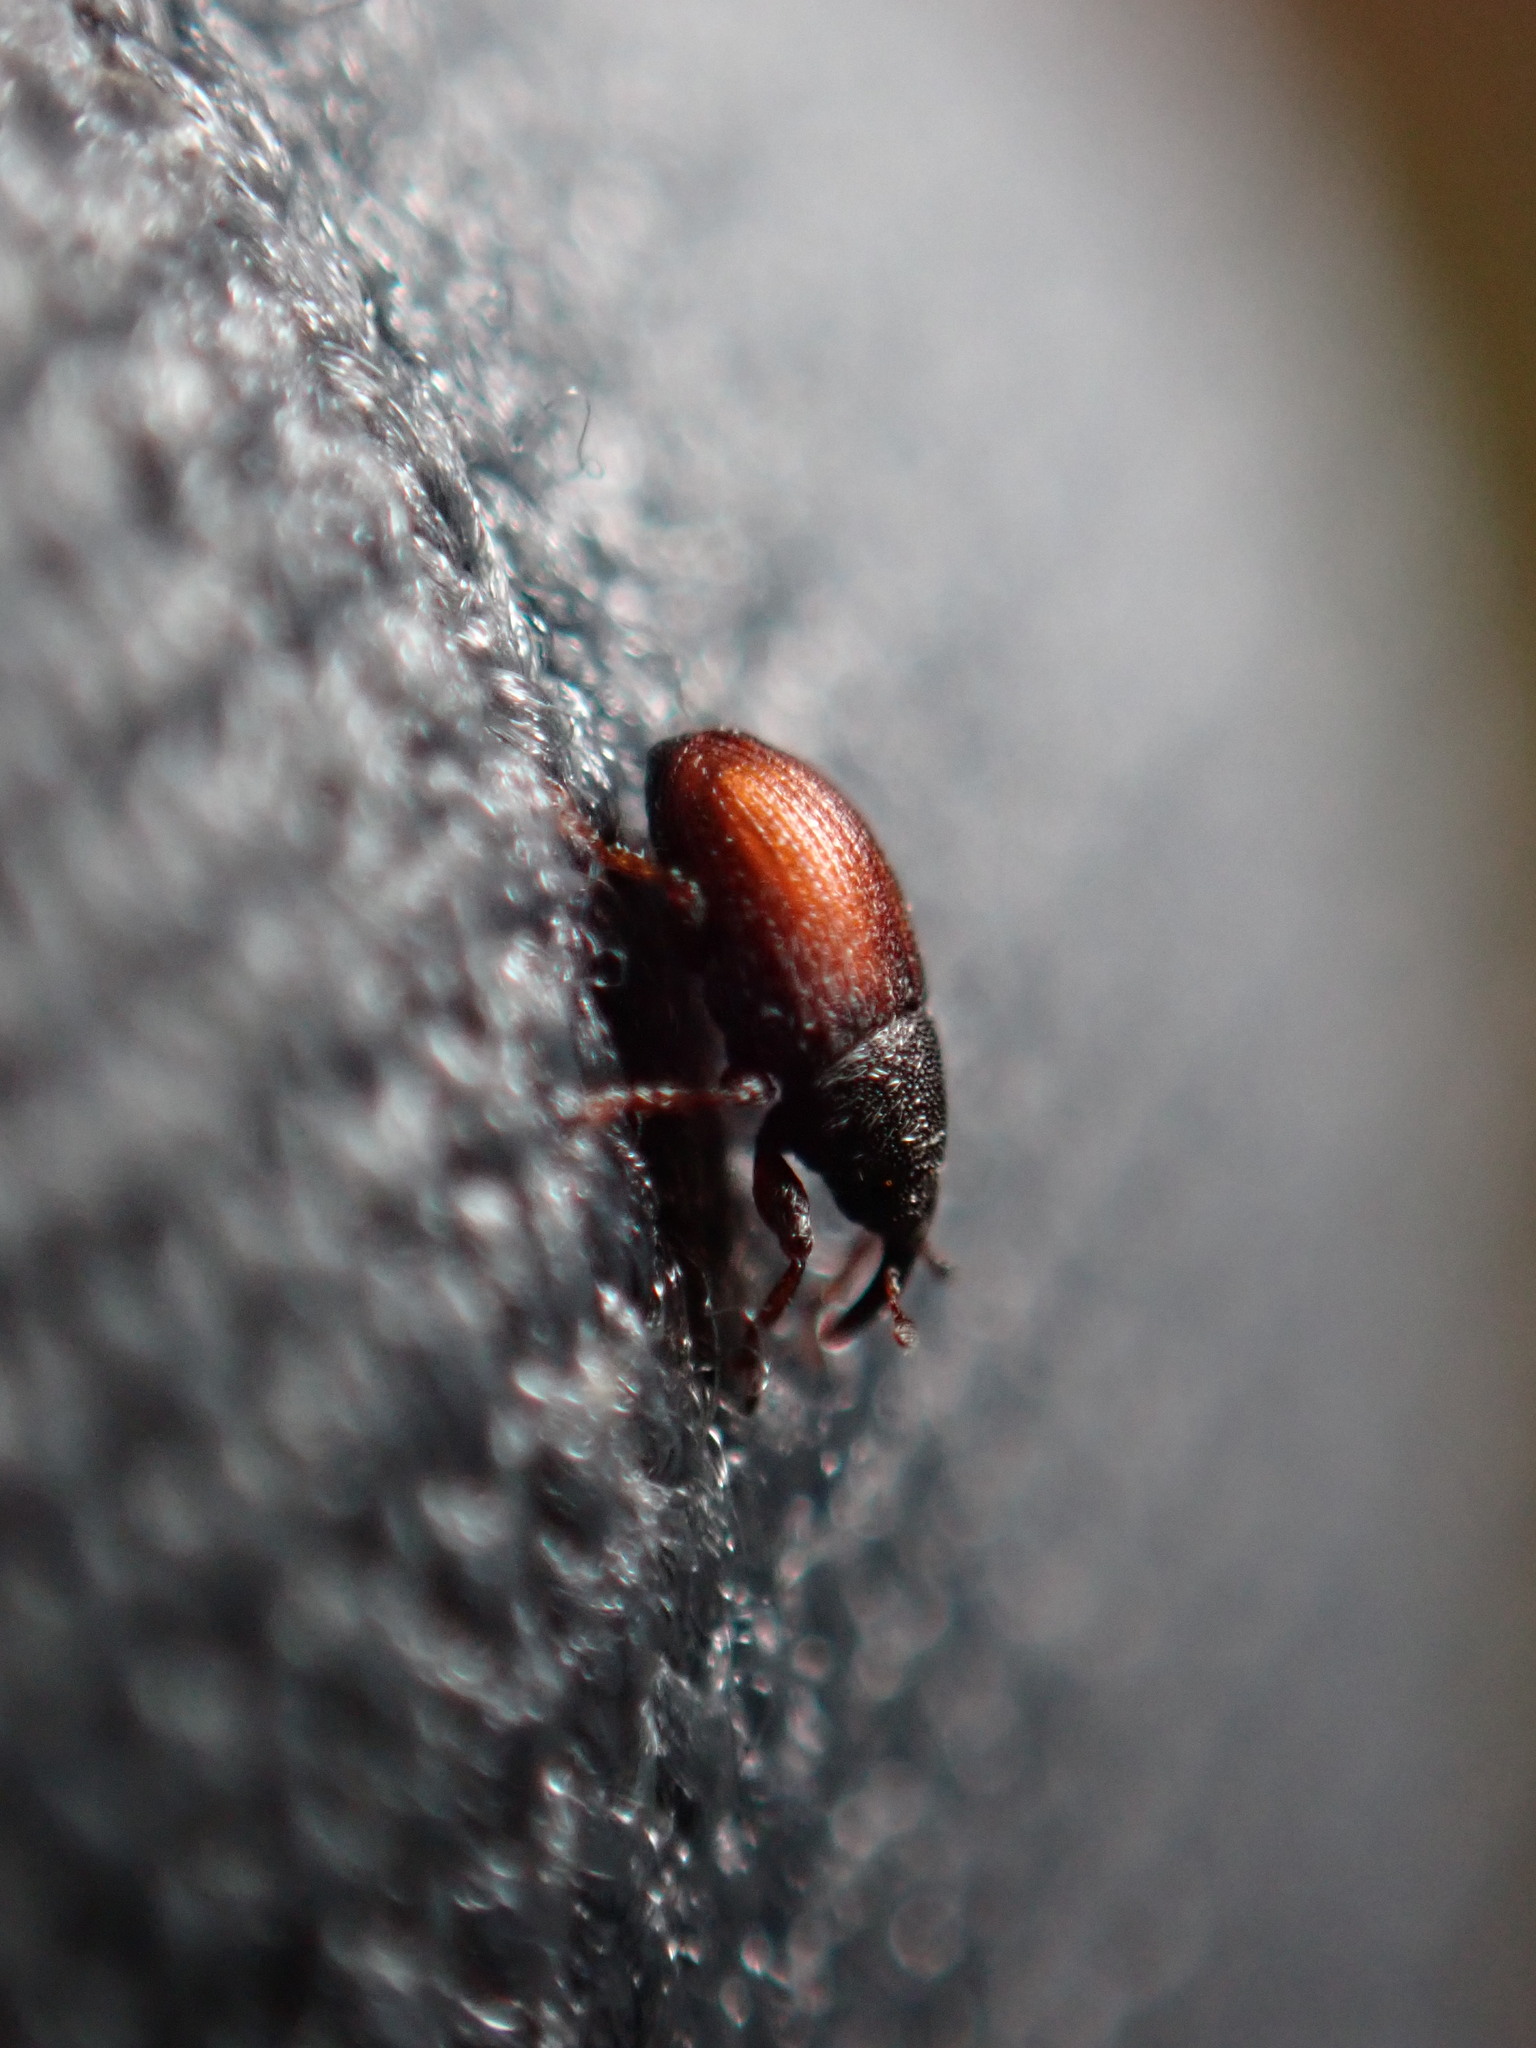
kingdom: Animalia
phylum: Arthropoda
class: Insecta
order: Coleoptera
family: Curculionidae
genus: Mecinus
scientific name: Mecinus pascuorum
